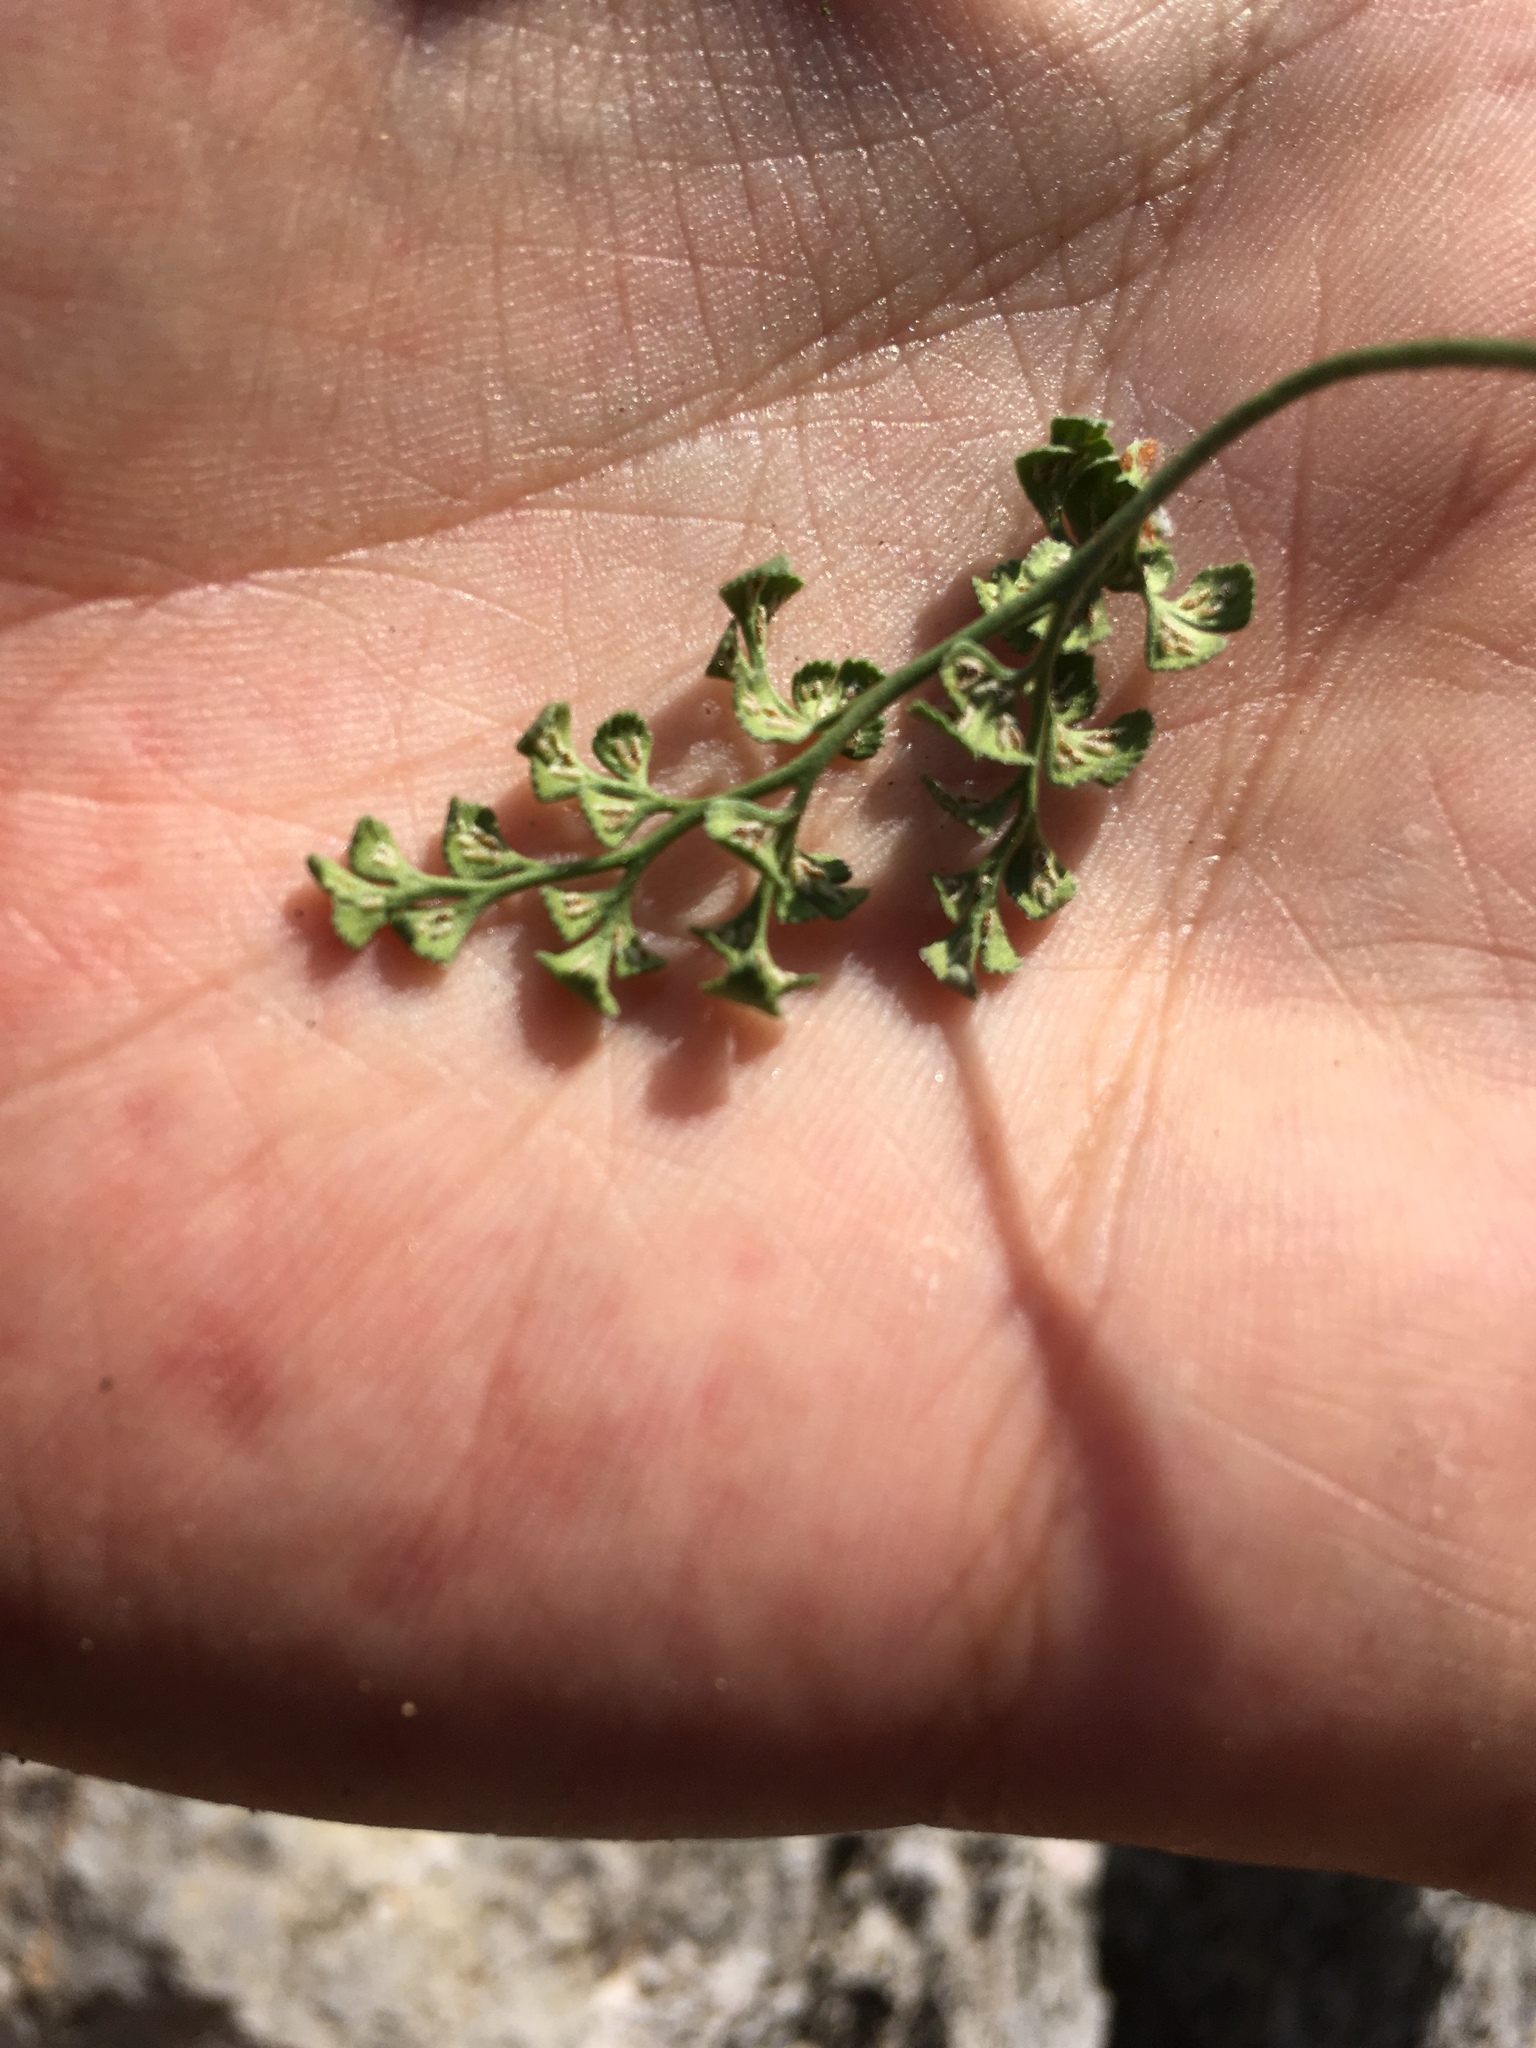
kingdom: Plantae
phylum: Tracheophyta
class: Polypodiopsida
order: Polypodiales
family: Aspleniaceae
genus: Asplenium
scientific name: Asplenium ruta-muraria
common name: Wall-rue
